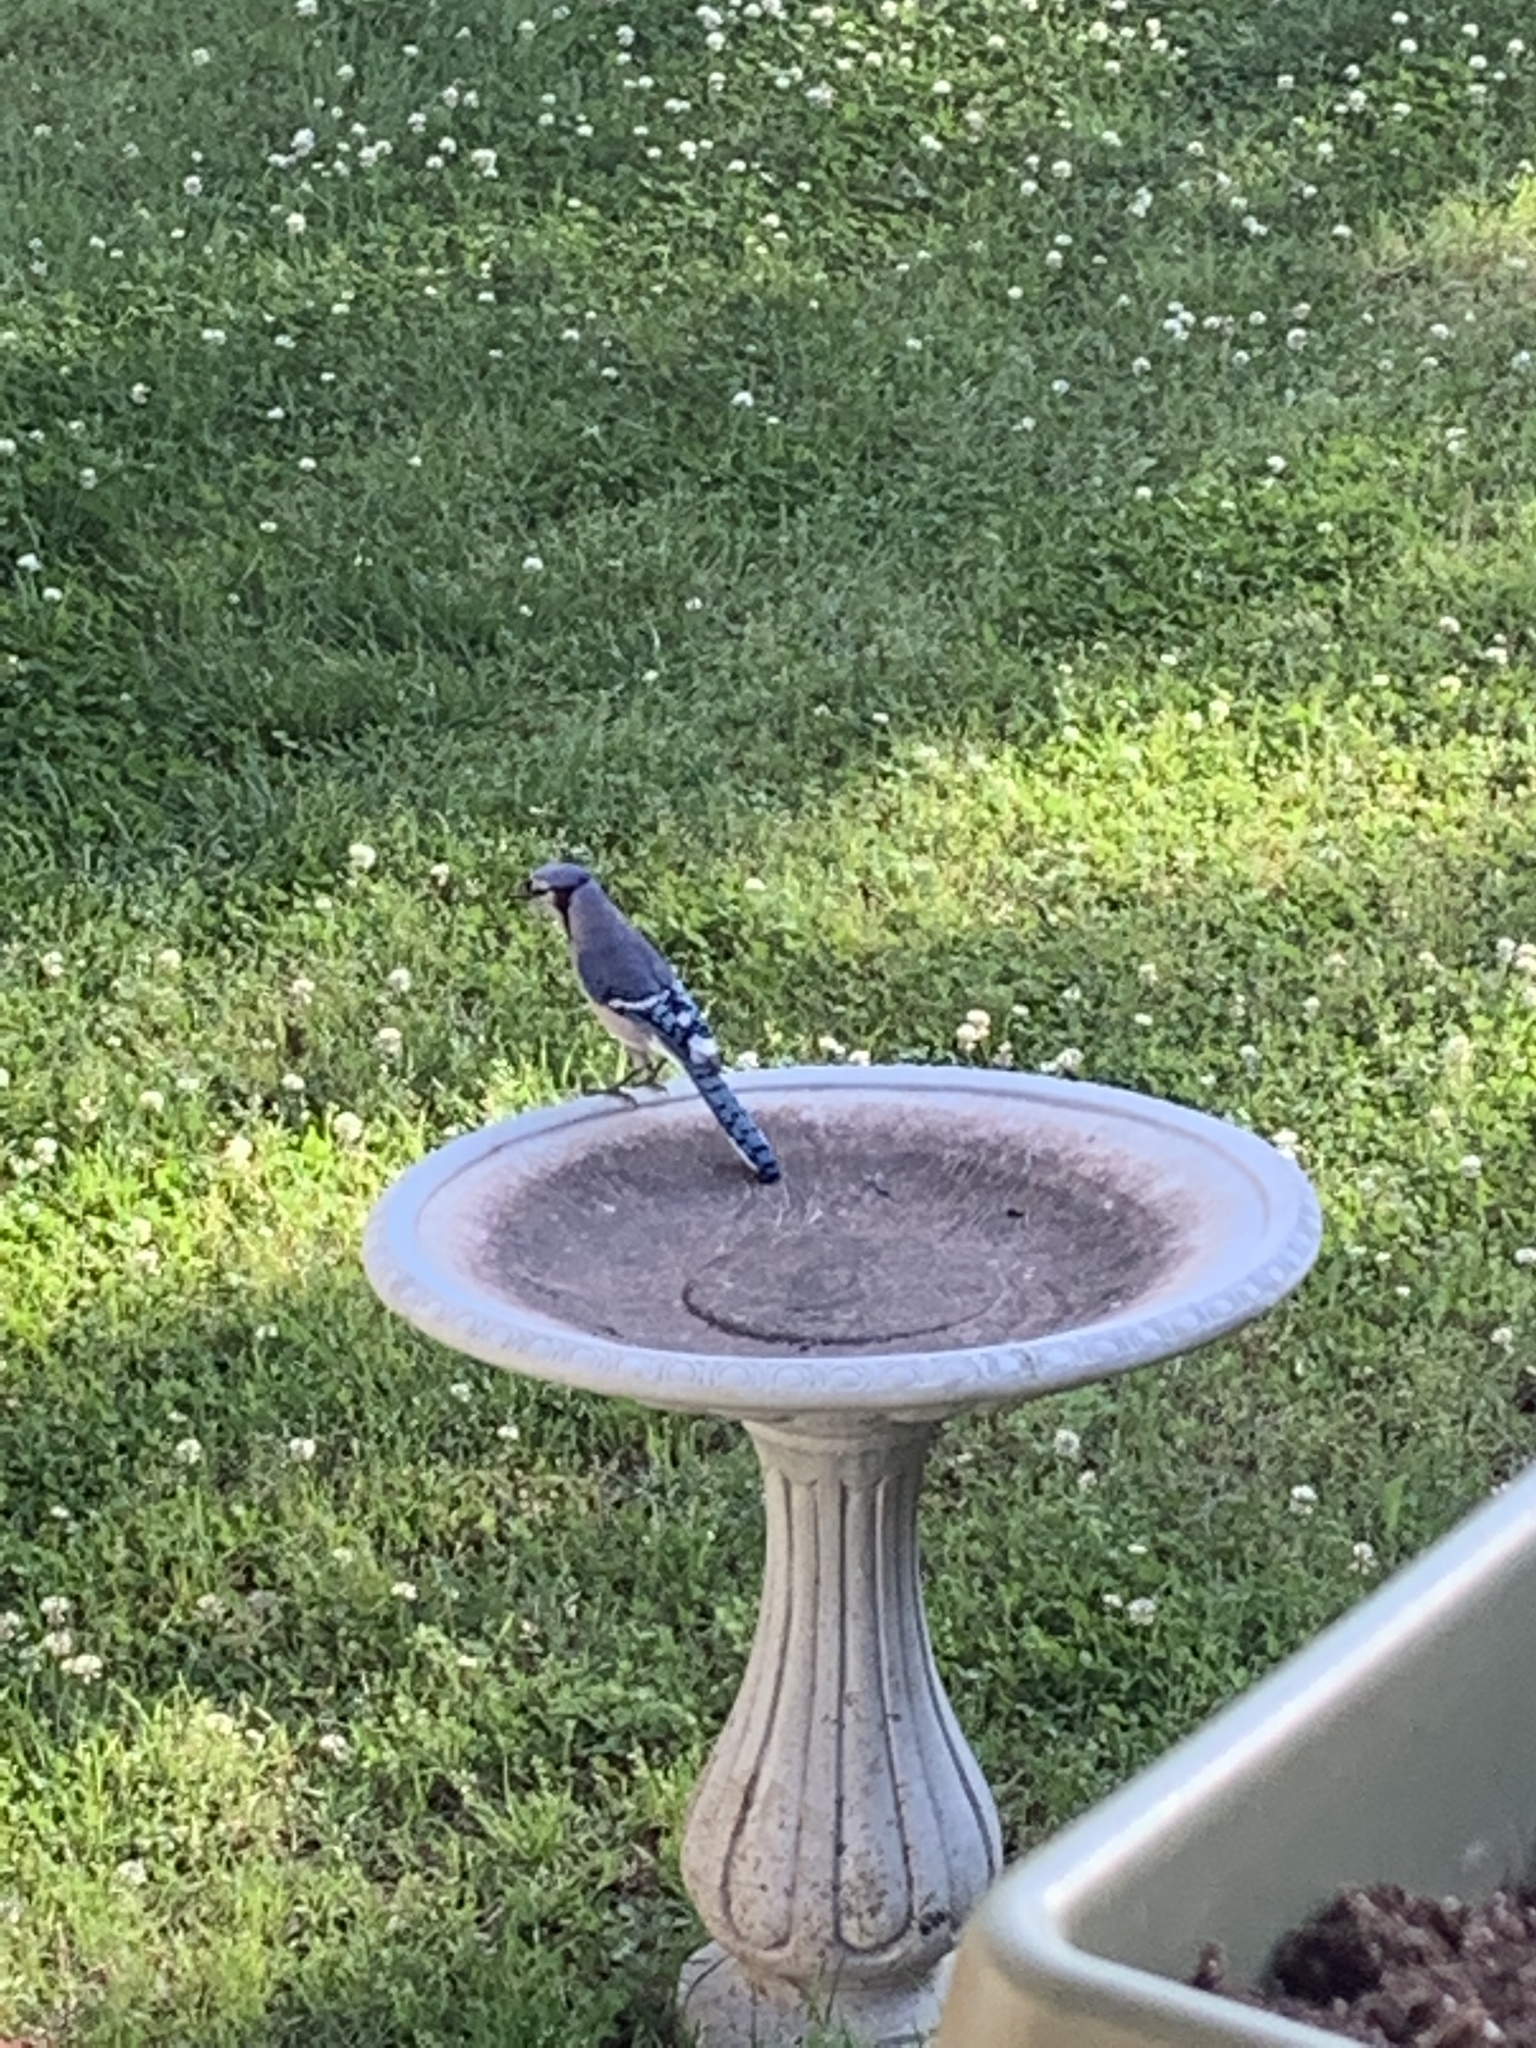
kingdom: Animalia
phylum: Chordata
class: Aves
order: Passeriformes
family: Corvidae
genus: Cyanocitta
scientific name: Cyanocitta cristata
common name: Blue jay
